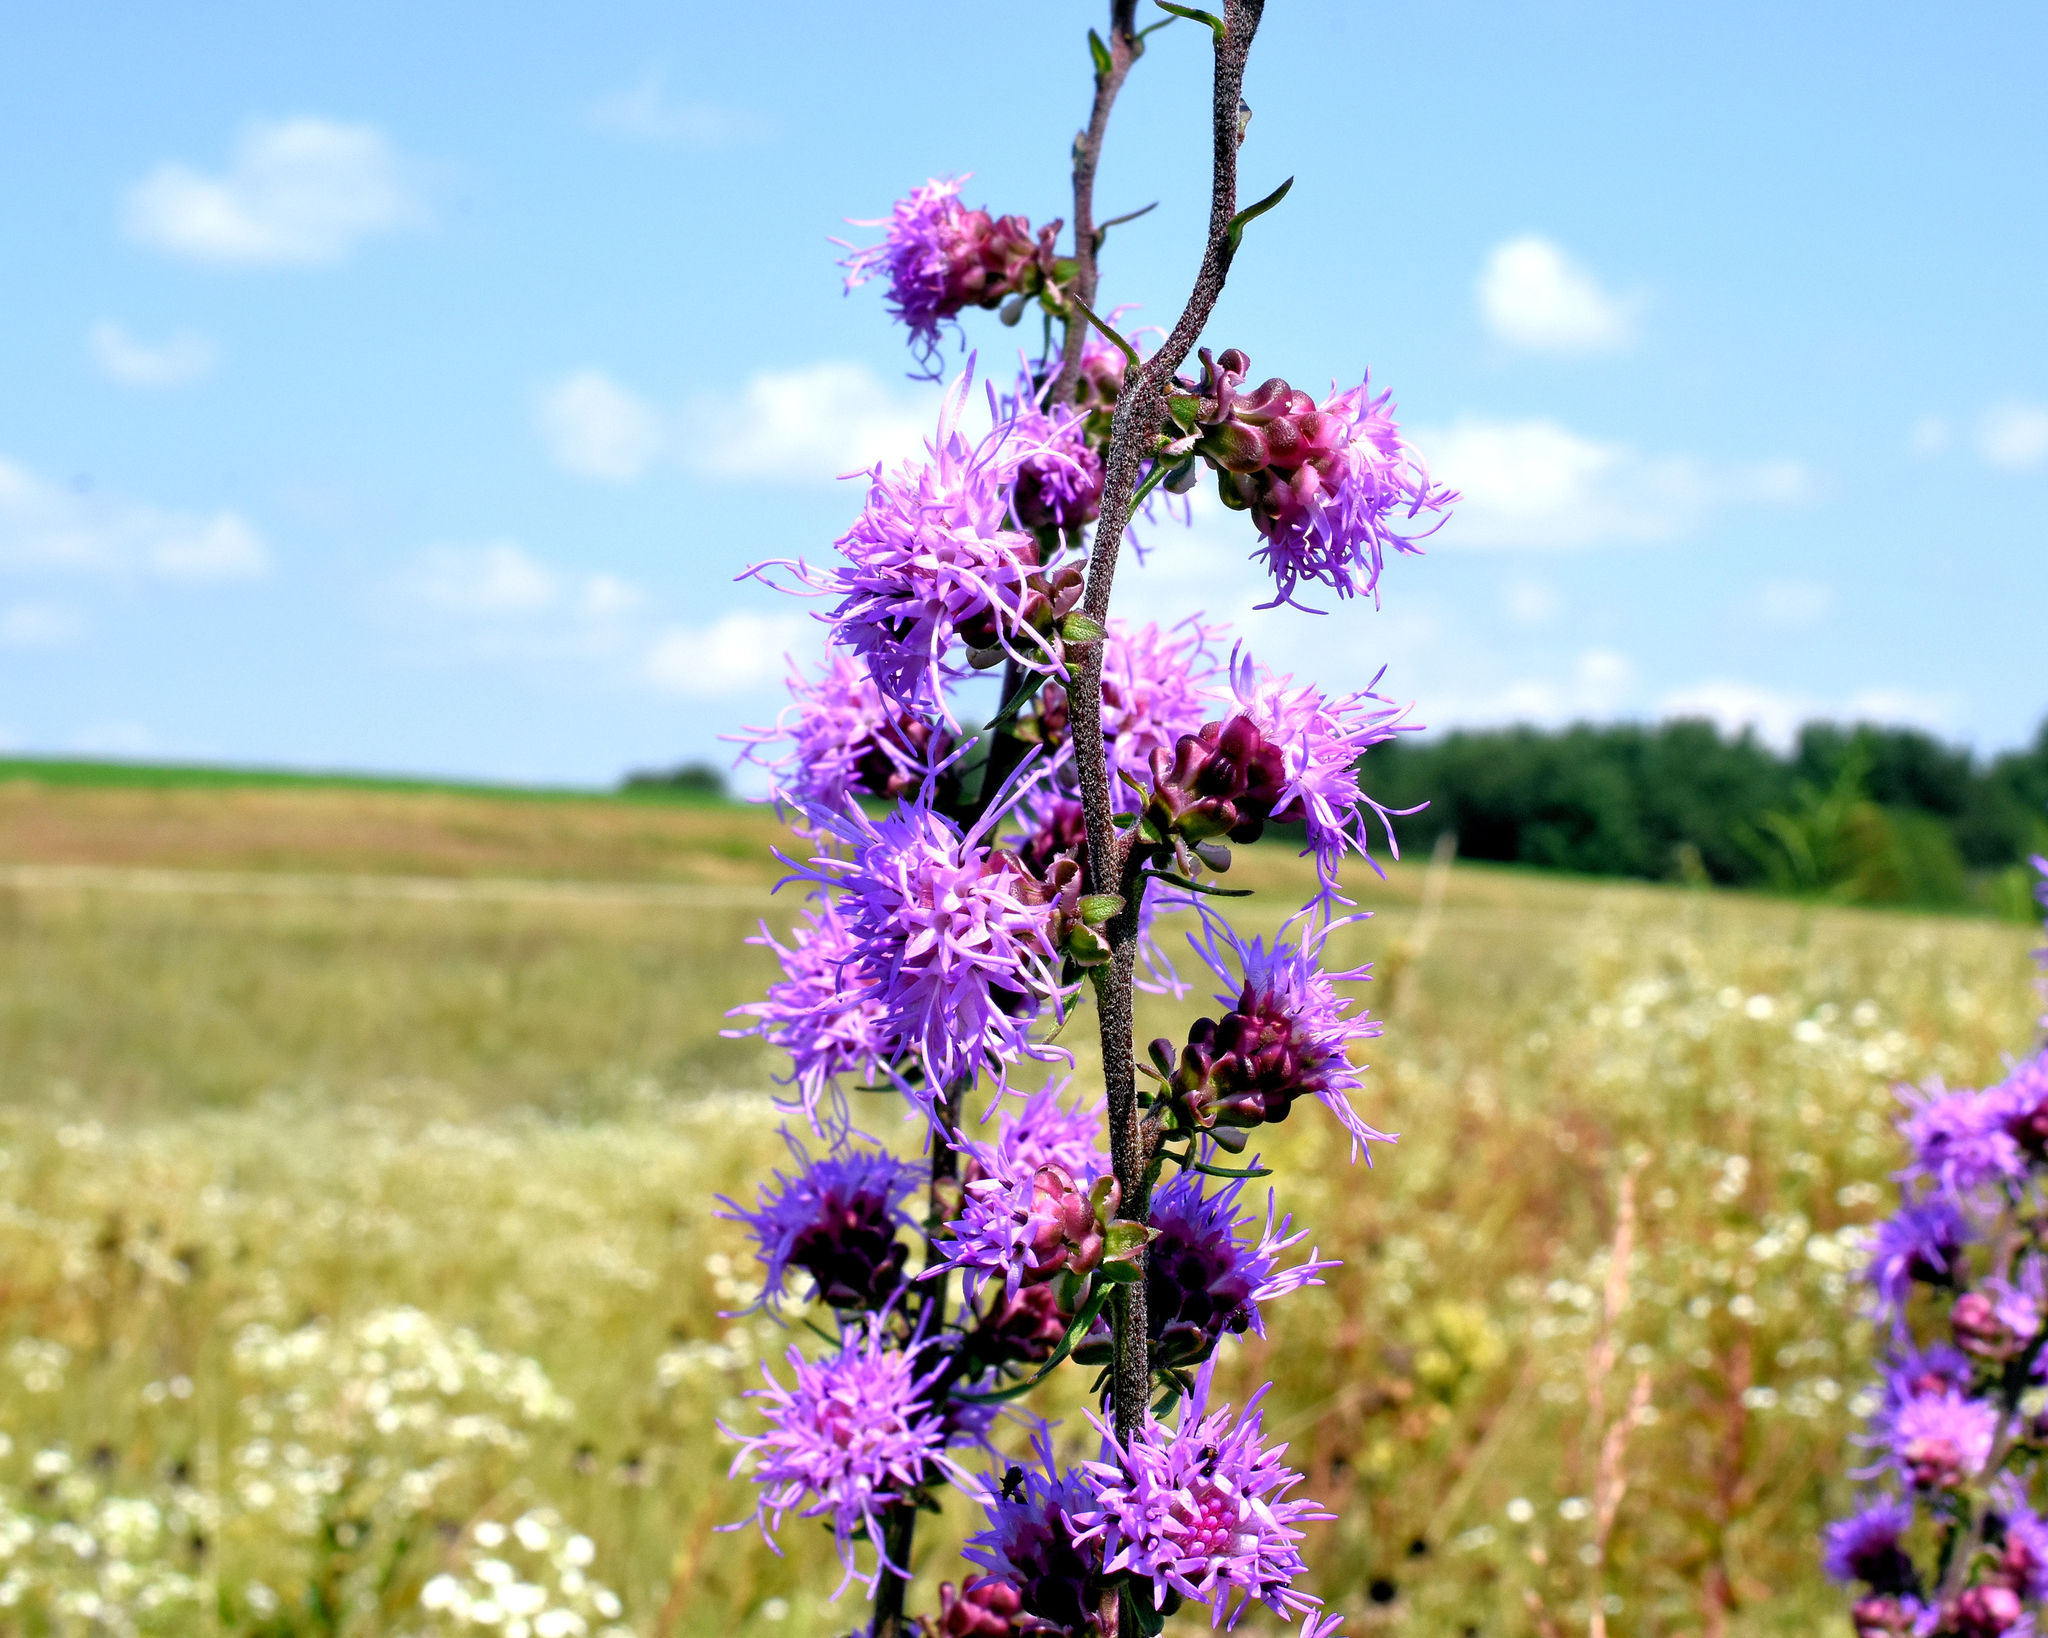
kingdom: Plantae
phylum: Tracheophyta
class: Magnoliopsida
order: Asterales
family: Asteraceae
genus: Liatris
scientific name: Liatris aspera
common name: Lacerate blazing-star
